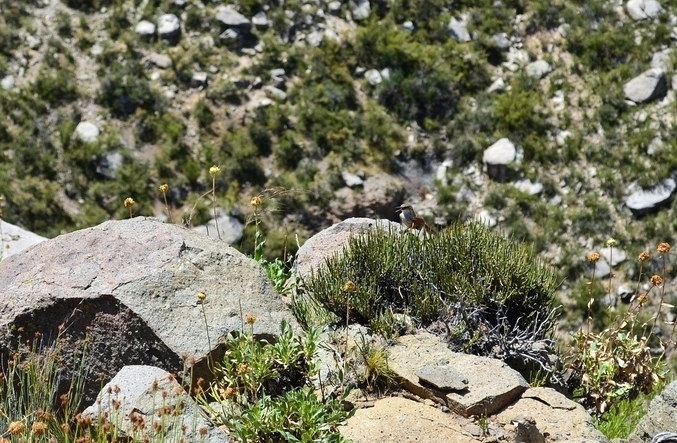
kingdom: Animalia
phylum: Chordata
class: Aves
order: Passeriformes
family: Furnariidae
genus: Upucerthia
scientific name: Upucerthia certhioides
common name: Chaco earthcreeper
